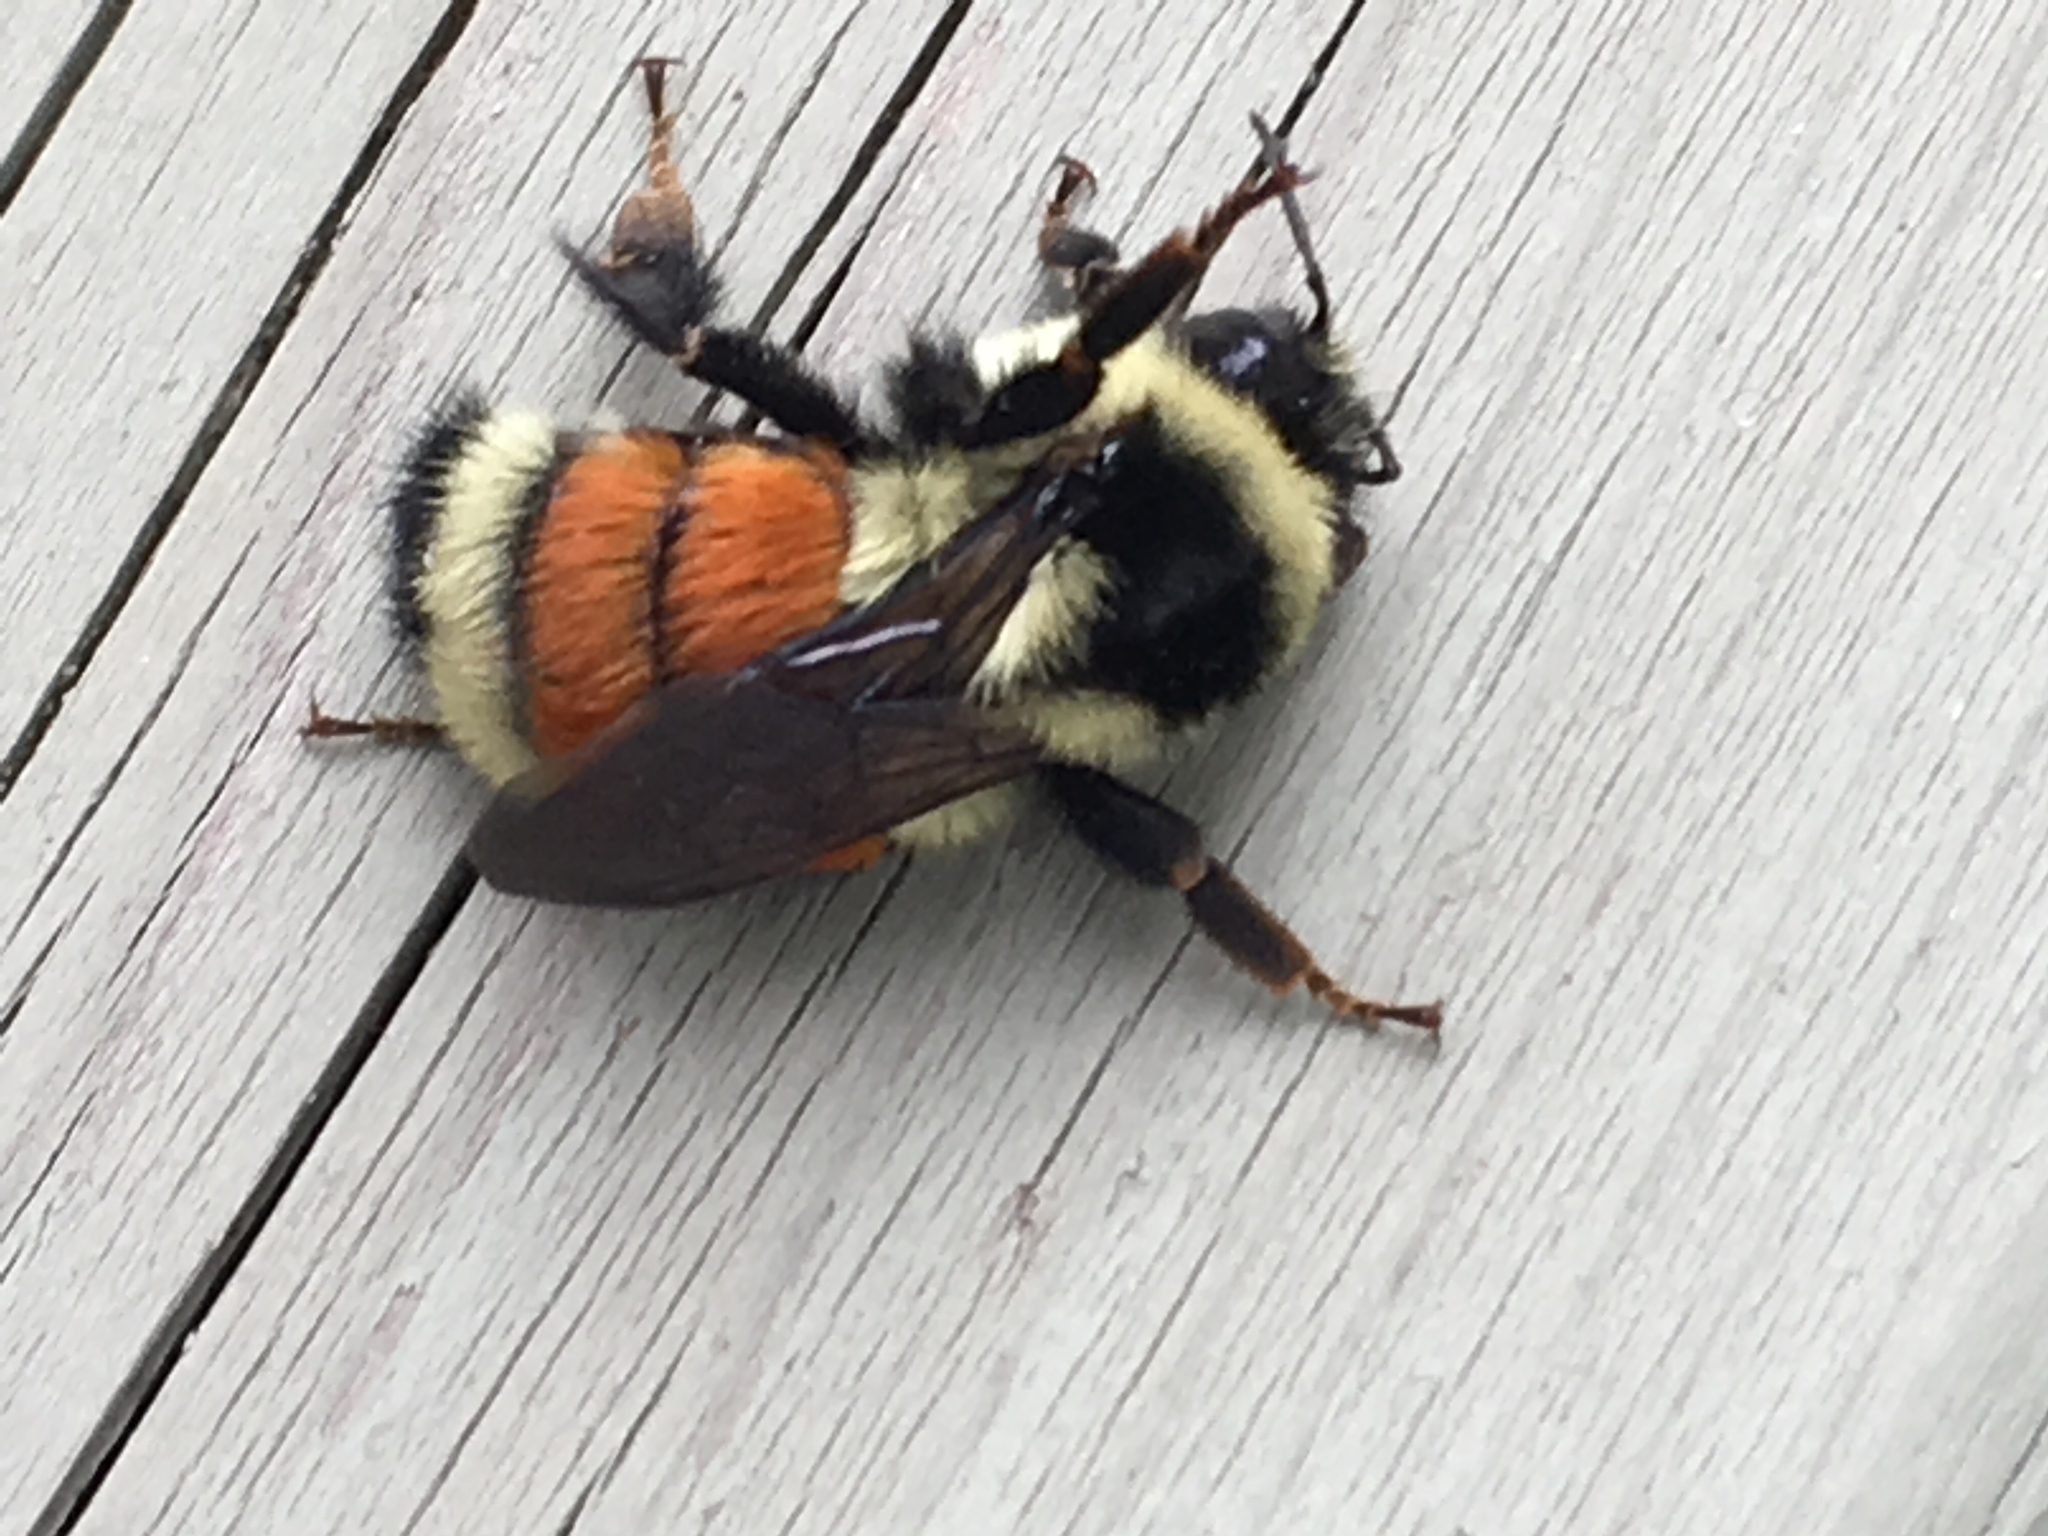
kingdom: Animalia
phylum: Arthropoda
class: Insecta
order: Hymenoptera
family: Apidae
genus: Bombus
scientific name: Bombus ternarius
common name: Tri-colored bumble bee
